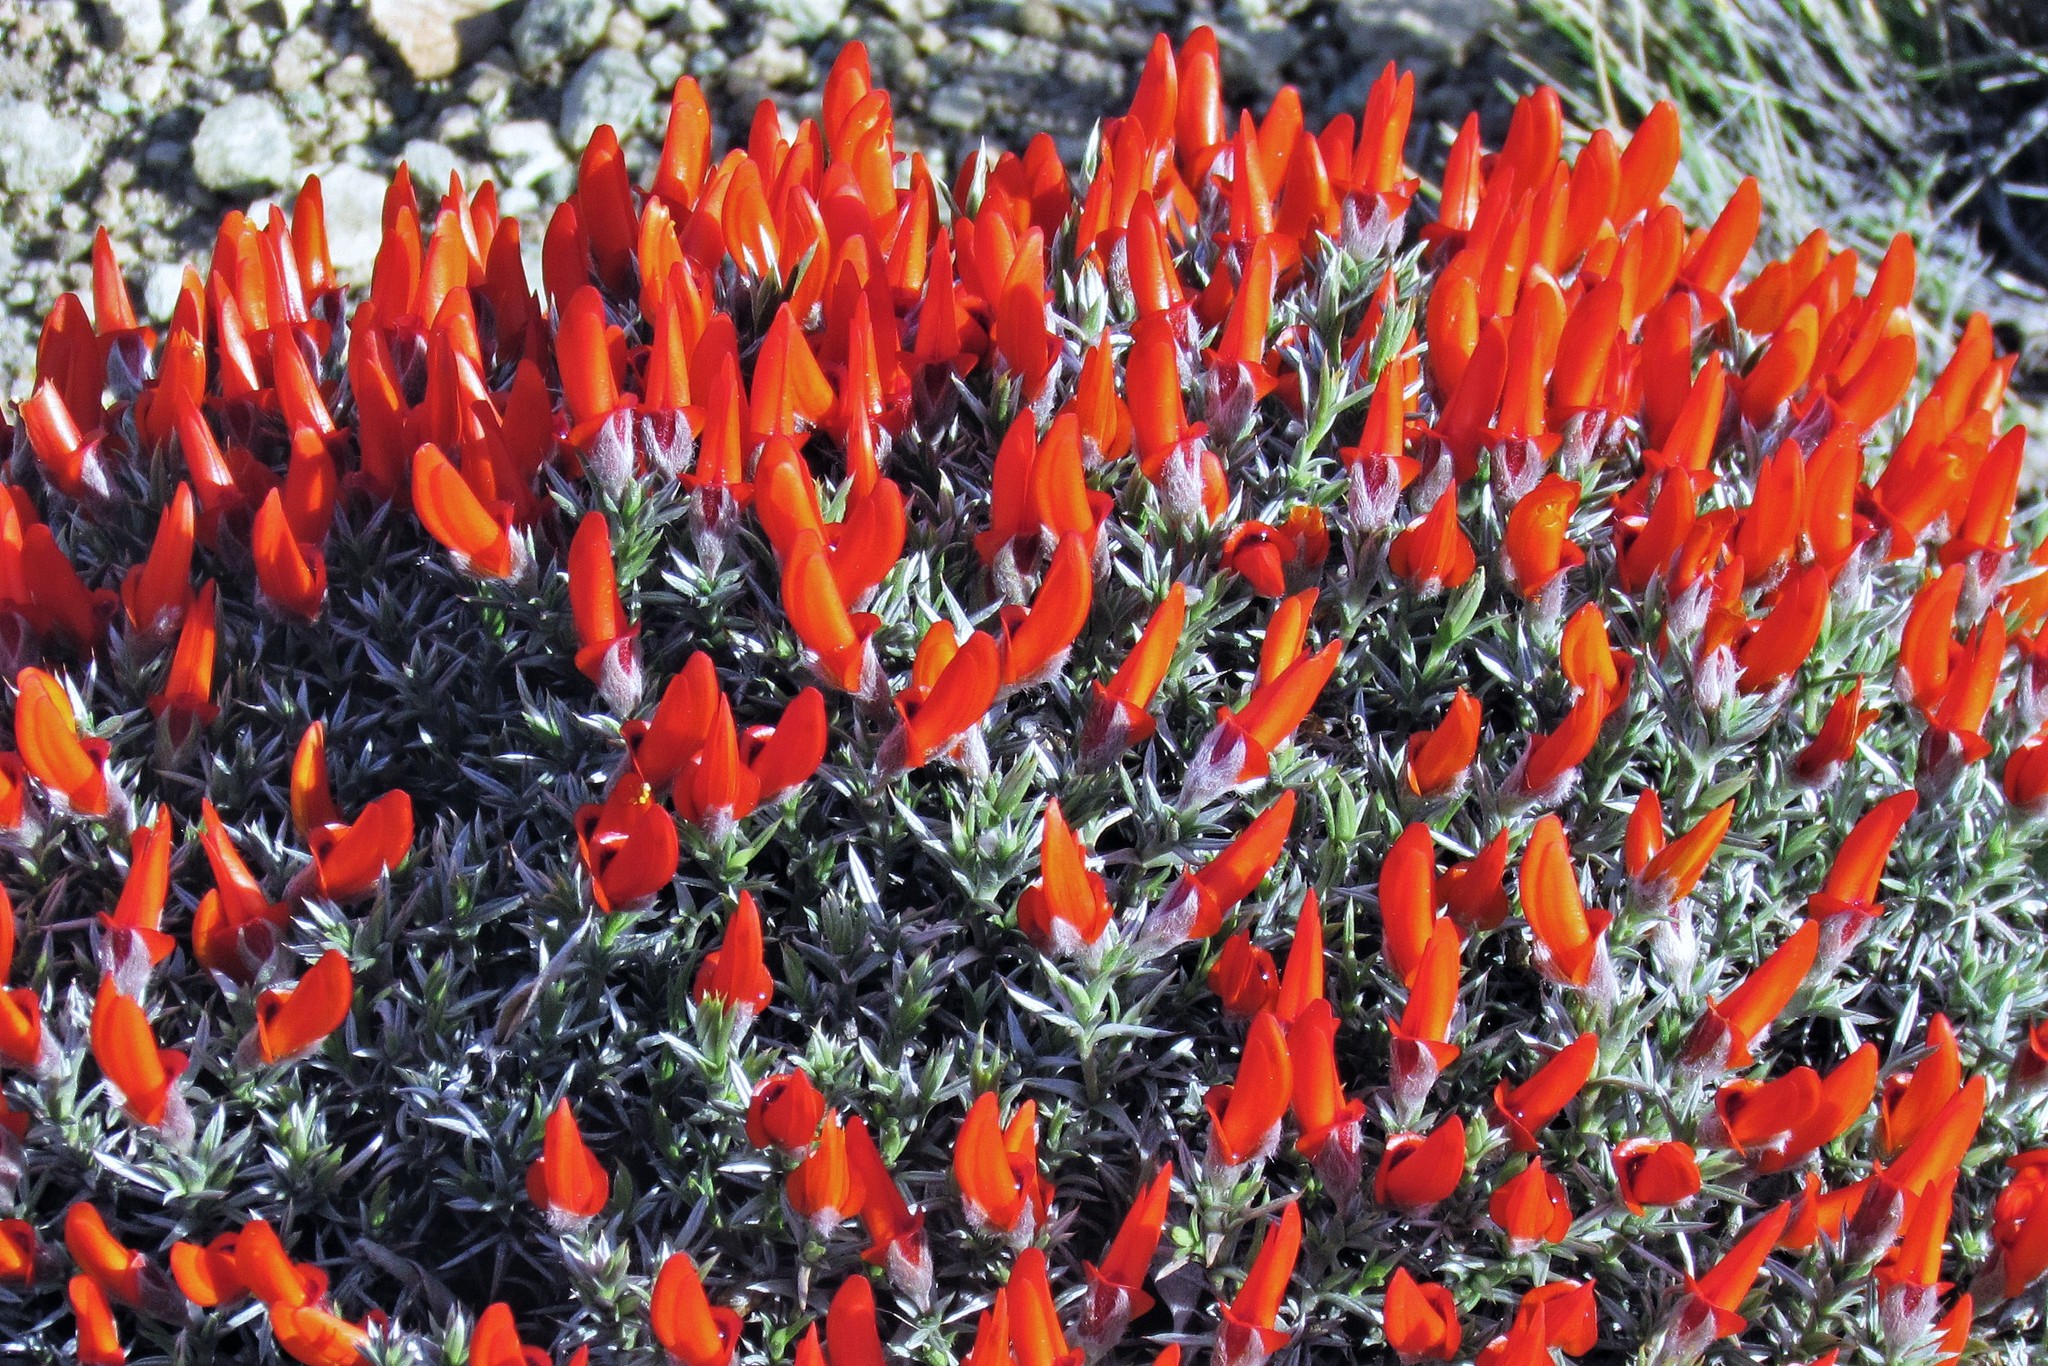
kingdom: Plantae
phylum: Tracheophyta
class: Magnoliopsida
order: Fabales
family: Fabaceae
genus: Anarthrophyllum
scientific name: Anarthrophyllum desideratum
